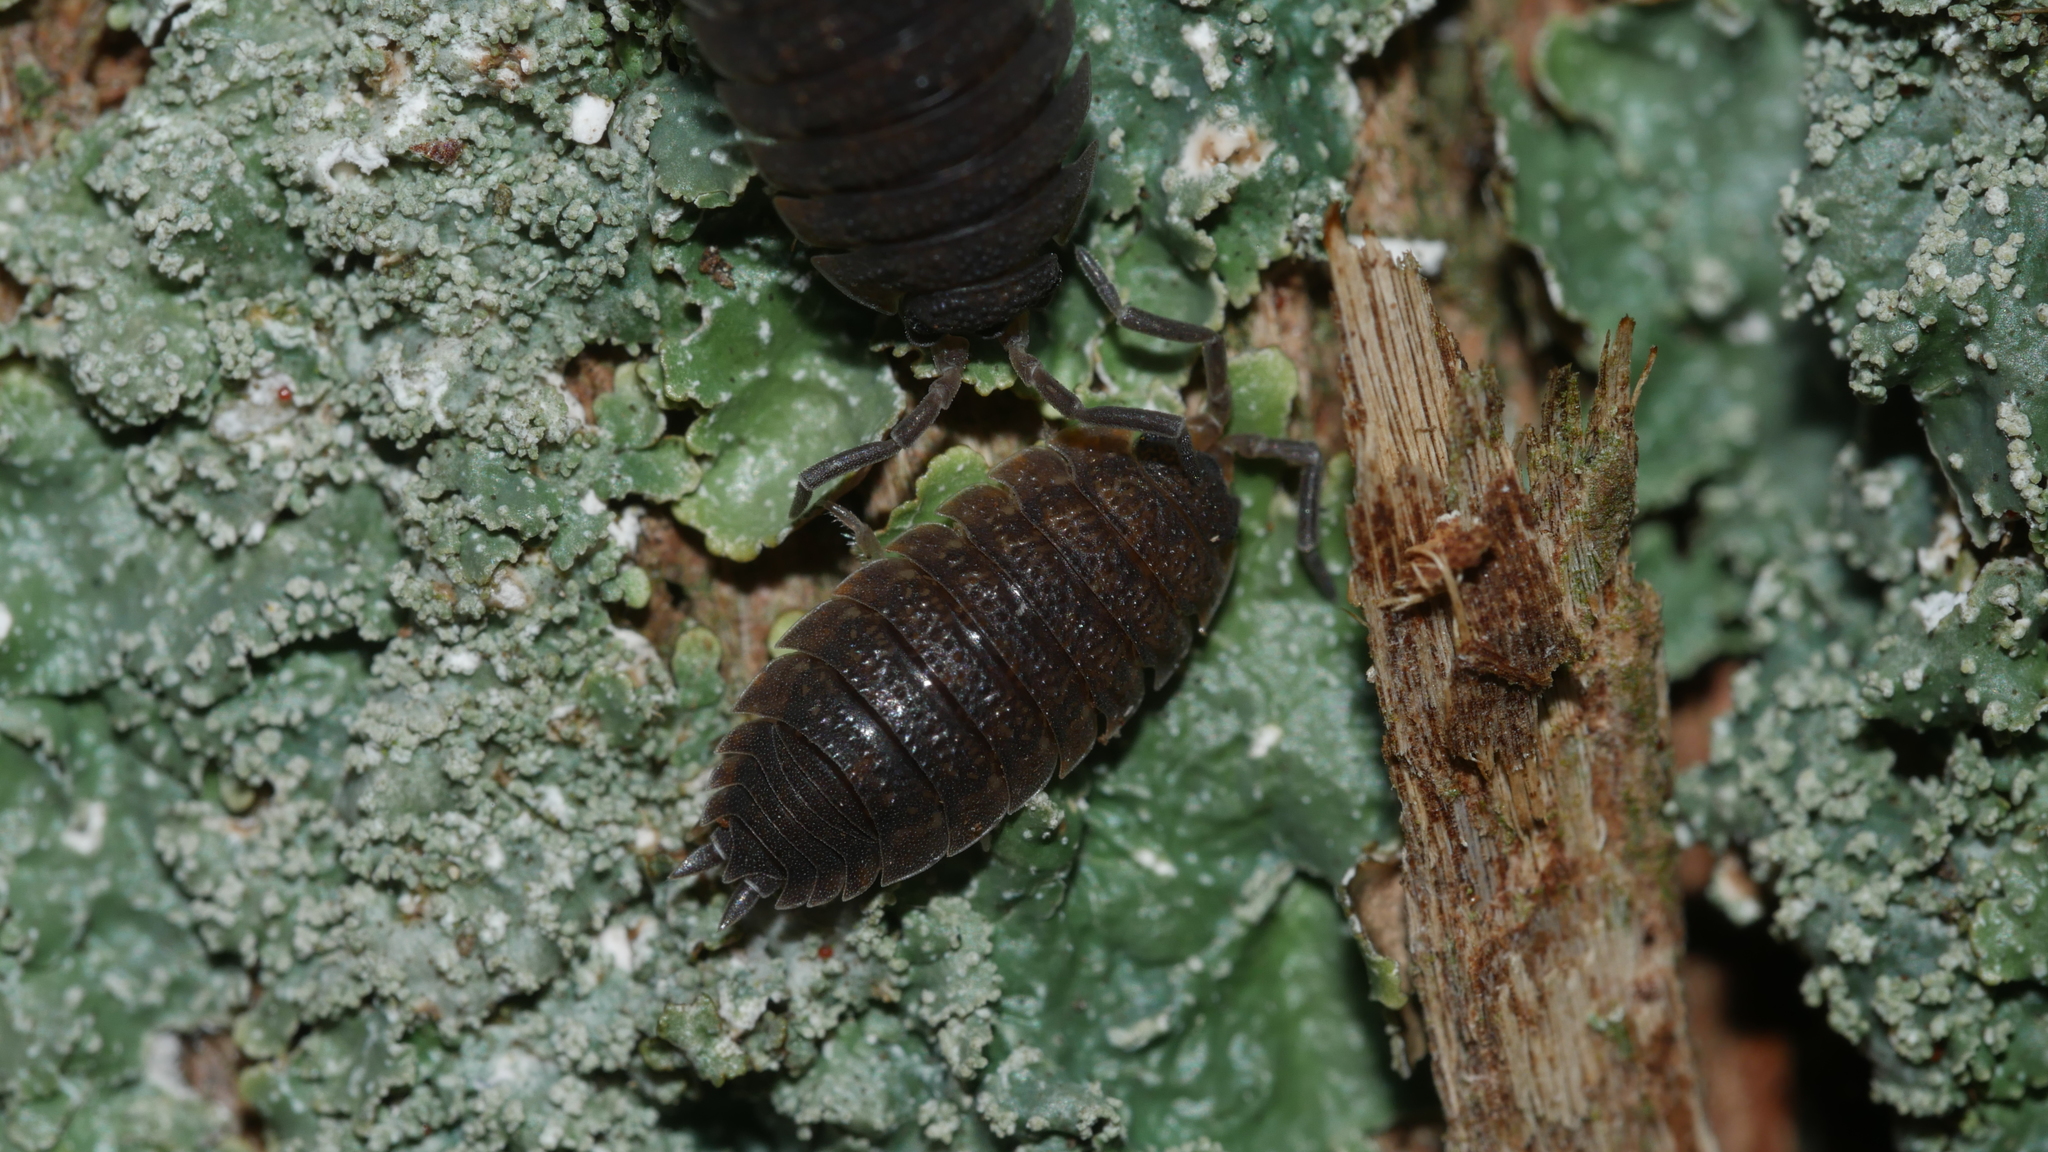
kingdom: Animalia
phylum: Arthropoda
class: Malacostraca
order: Isopoda
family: Porcellionidae
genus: Porcellio
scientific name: Porcellio scaber
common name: Common rough woodlouse
